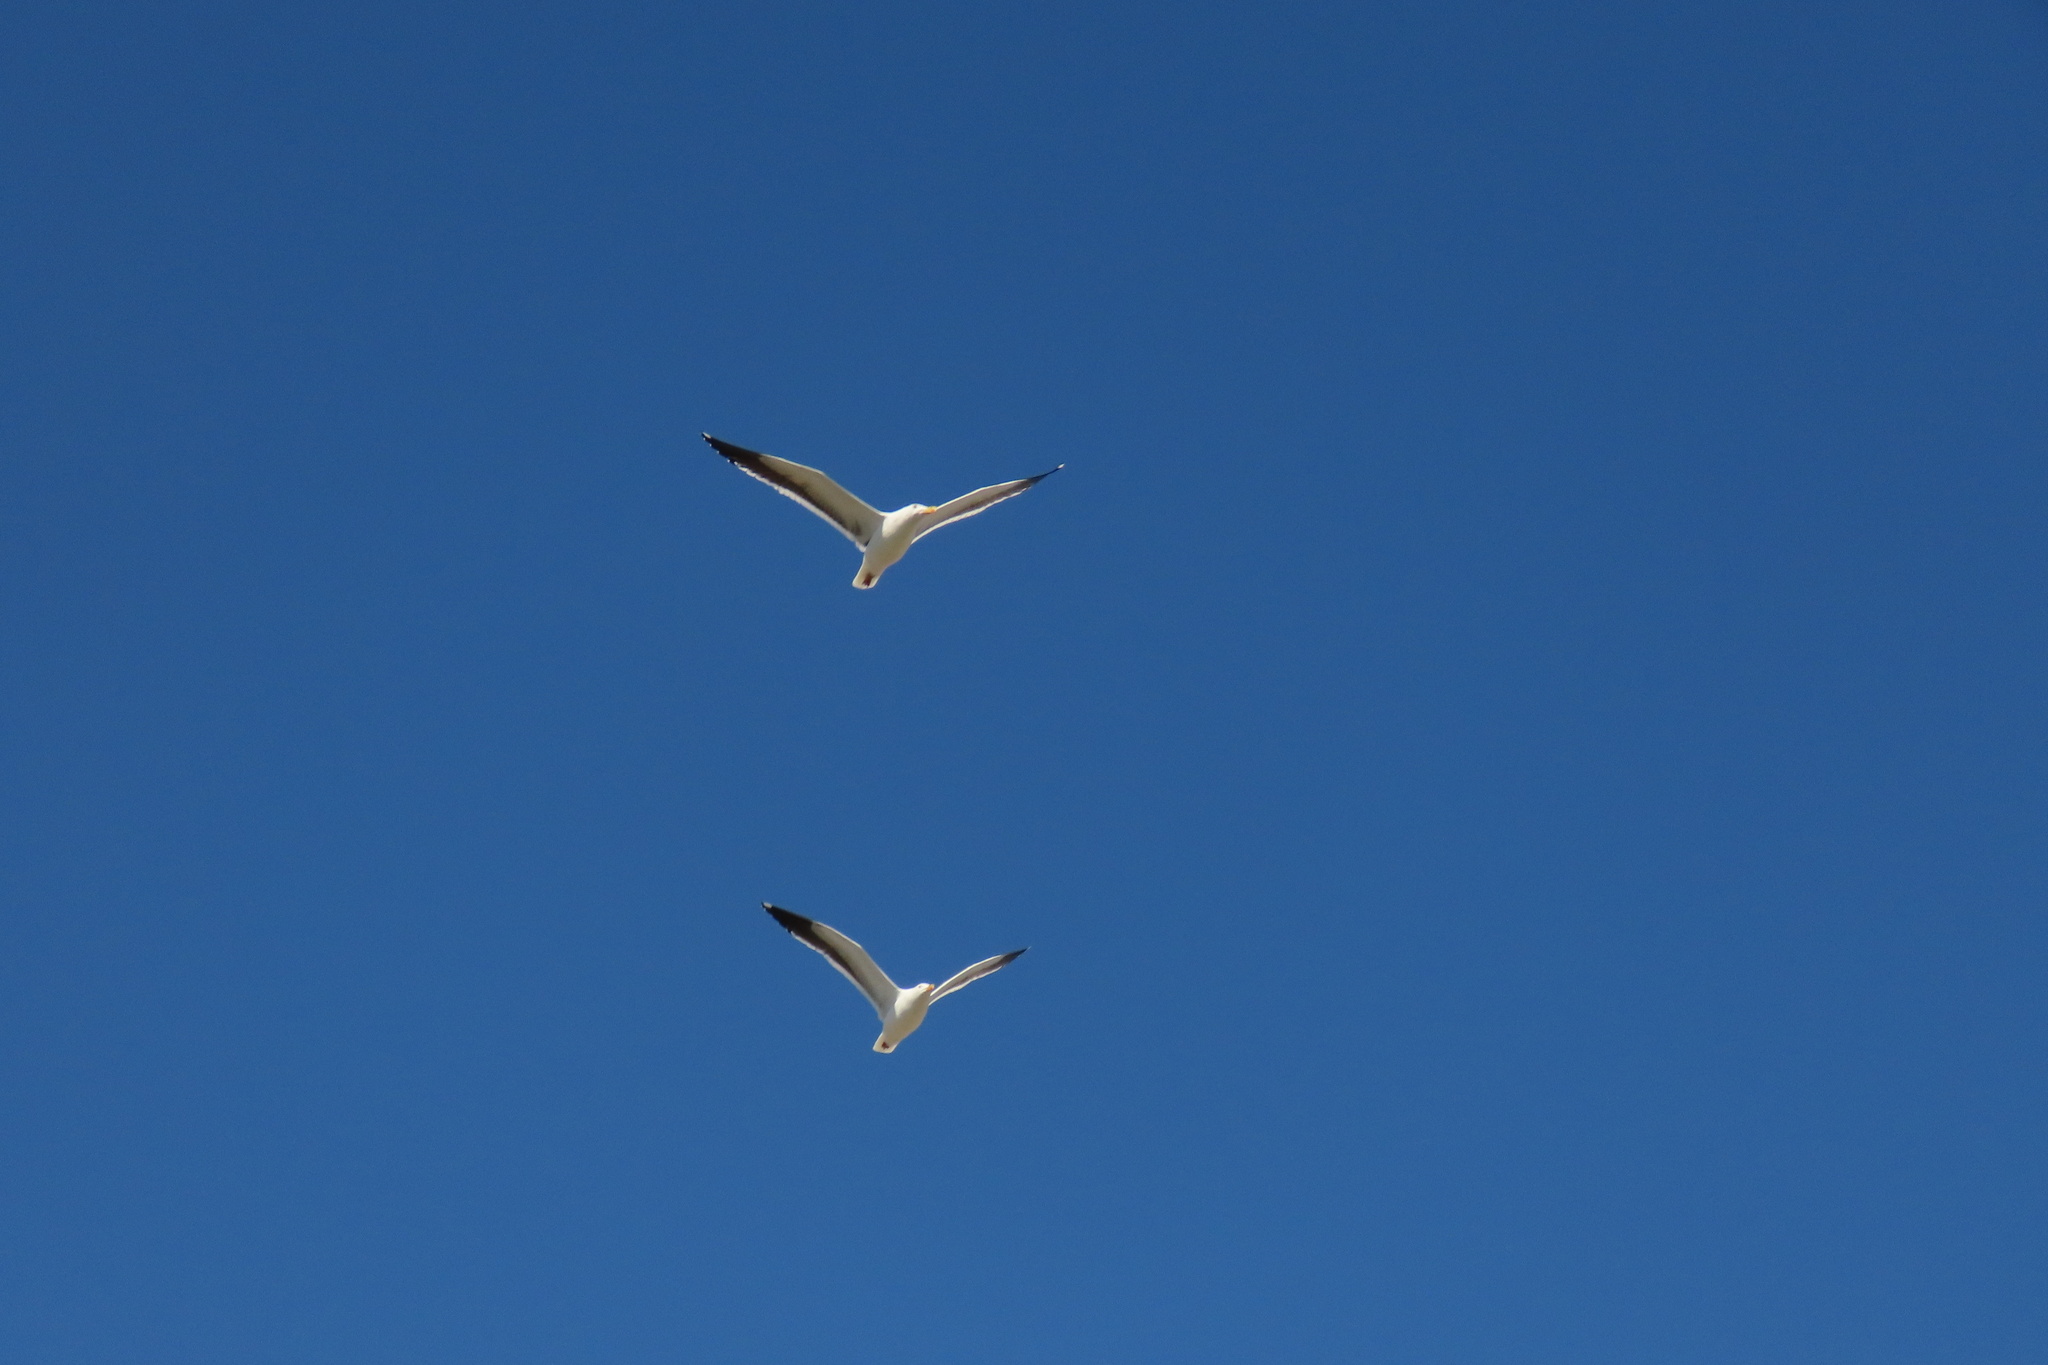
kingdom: Animalia
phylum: Chordata
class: Aves
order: Charadriiformes
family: Laridae
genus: Larus
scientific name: Larus occidentalis
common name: Western gull
